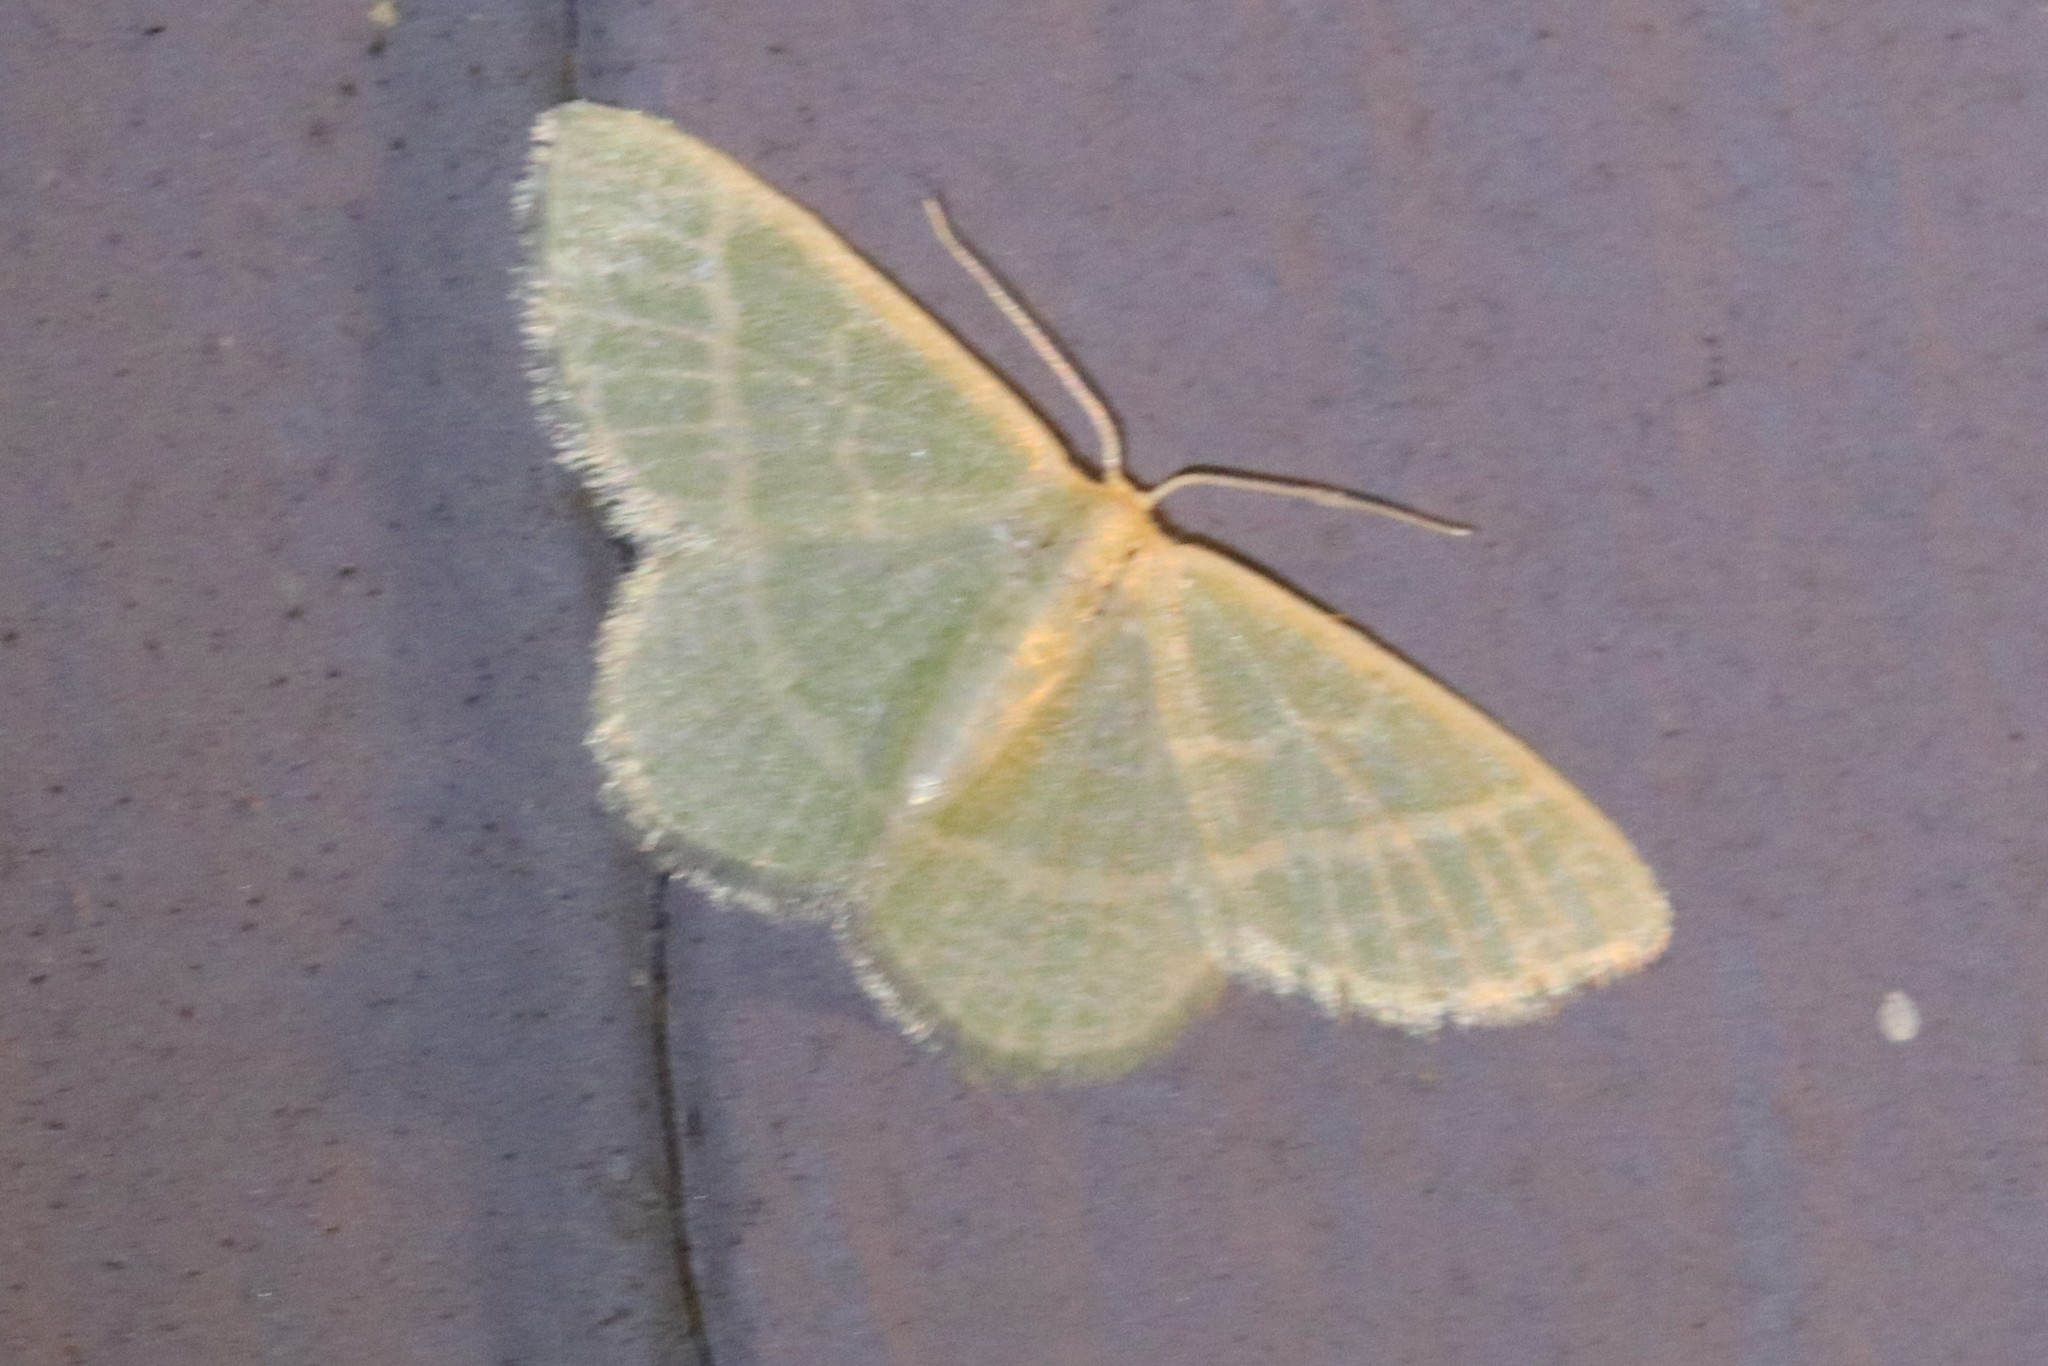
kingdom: Animalia
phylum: Arthropoda
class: Insecta
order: Lepidoptera
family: Geometridae
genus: Chlorochlamys
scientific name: Chlorochlamys chloroleucaria
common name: Blackberry looper
